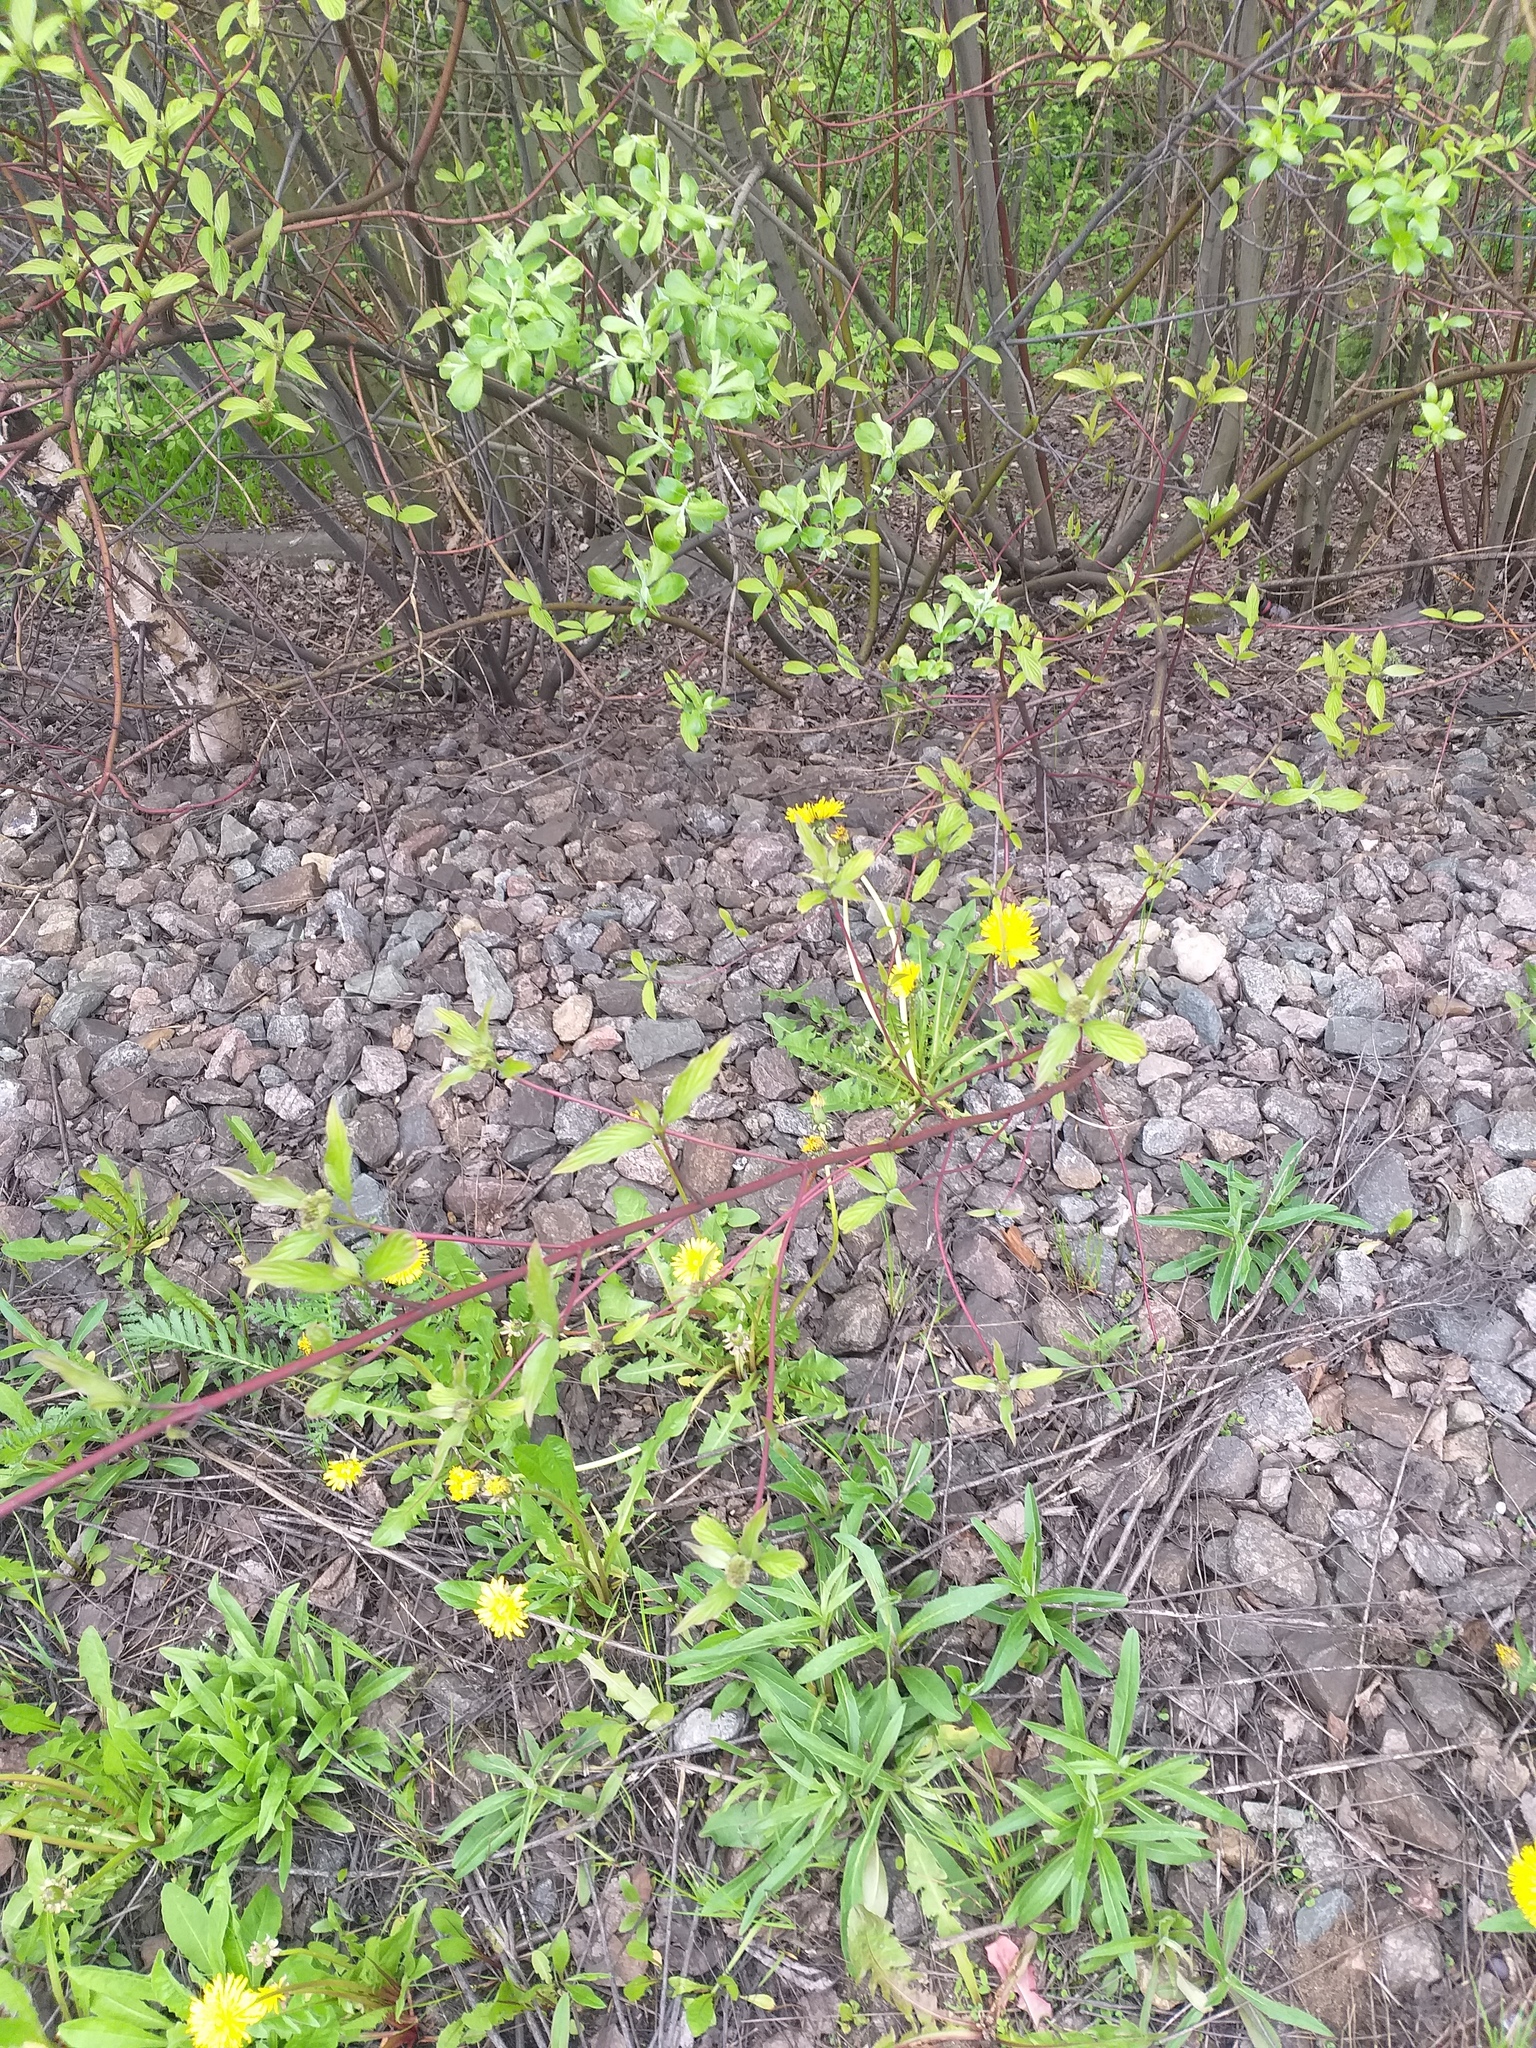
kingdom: Plantae
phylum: Tracheophyta
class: Magnoliopsida
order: Cornales
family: Cornaceae
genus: Cornus
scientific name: Cornus sericea
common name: Red-osier dogwood
